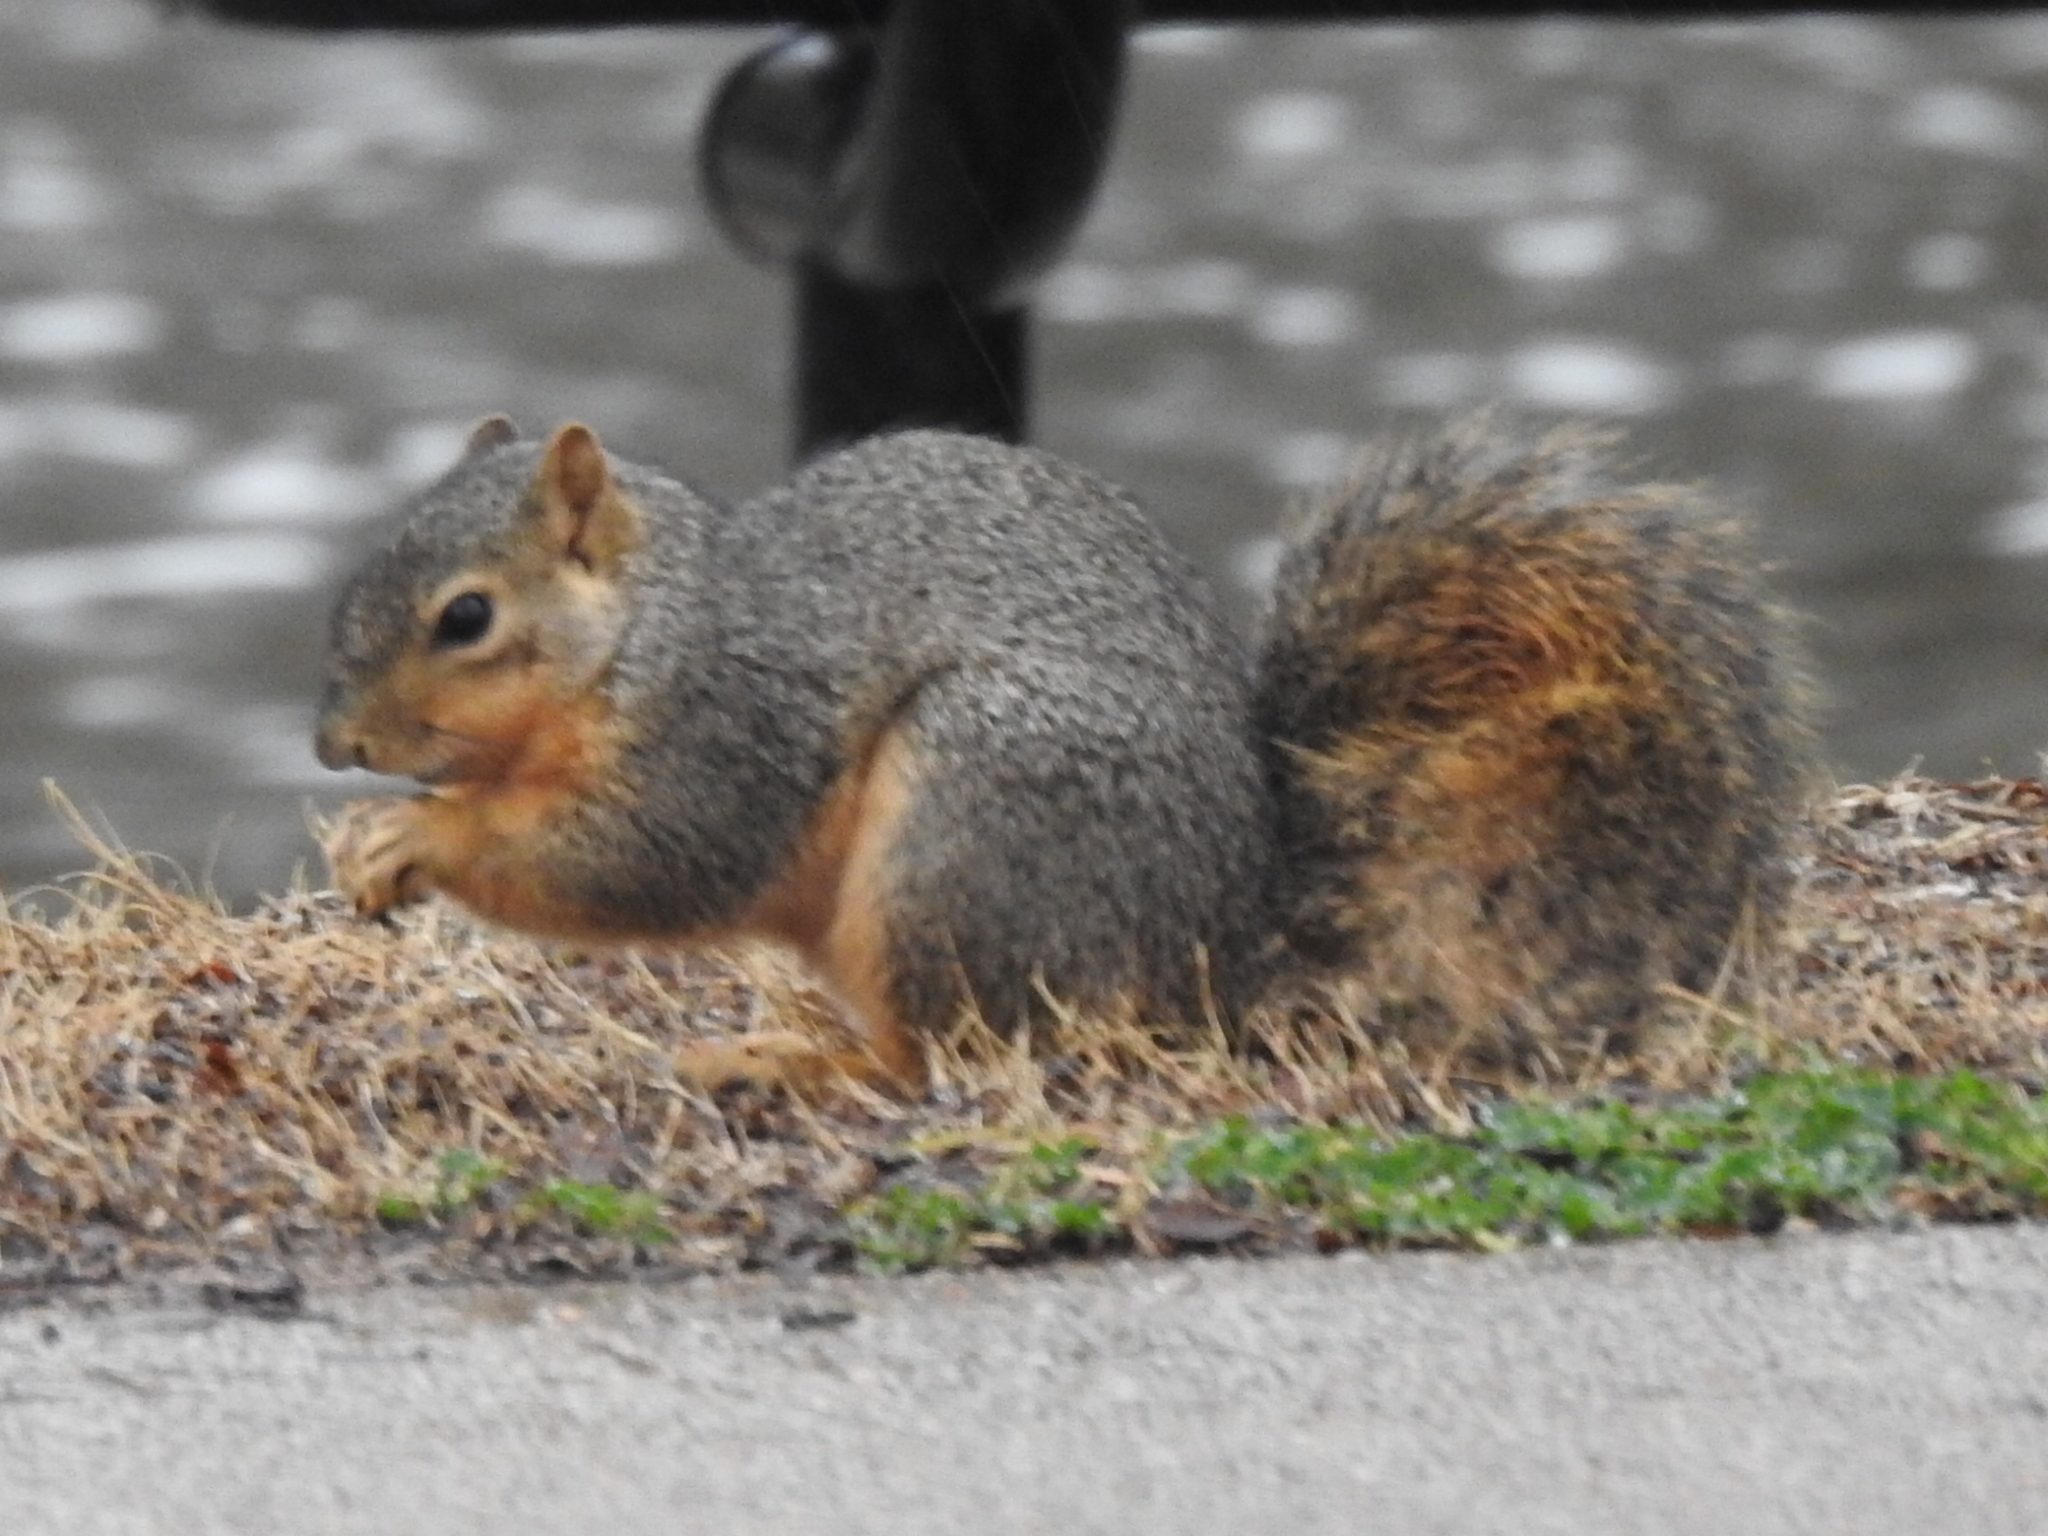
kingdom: Animalia
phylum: Chordata
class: Mammalia
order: Rodentia
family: Sciuridae
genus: Sciurus
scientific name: Sciurus niger
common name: Fox squirrel
